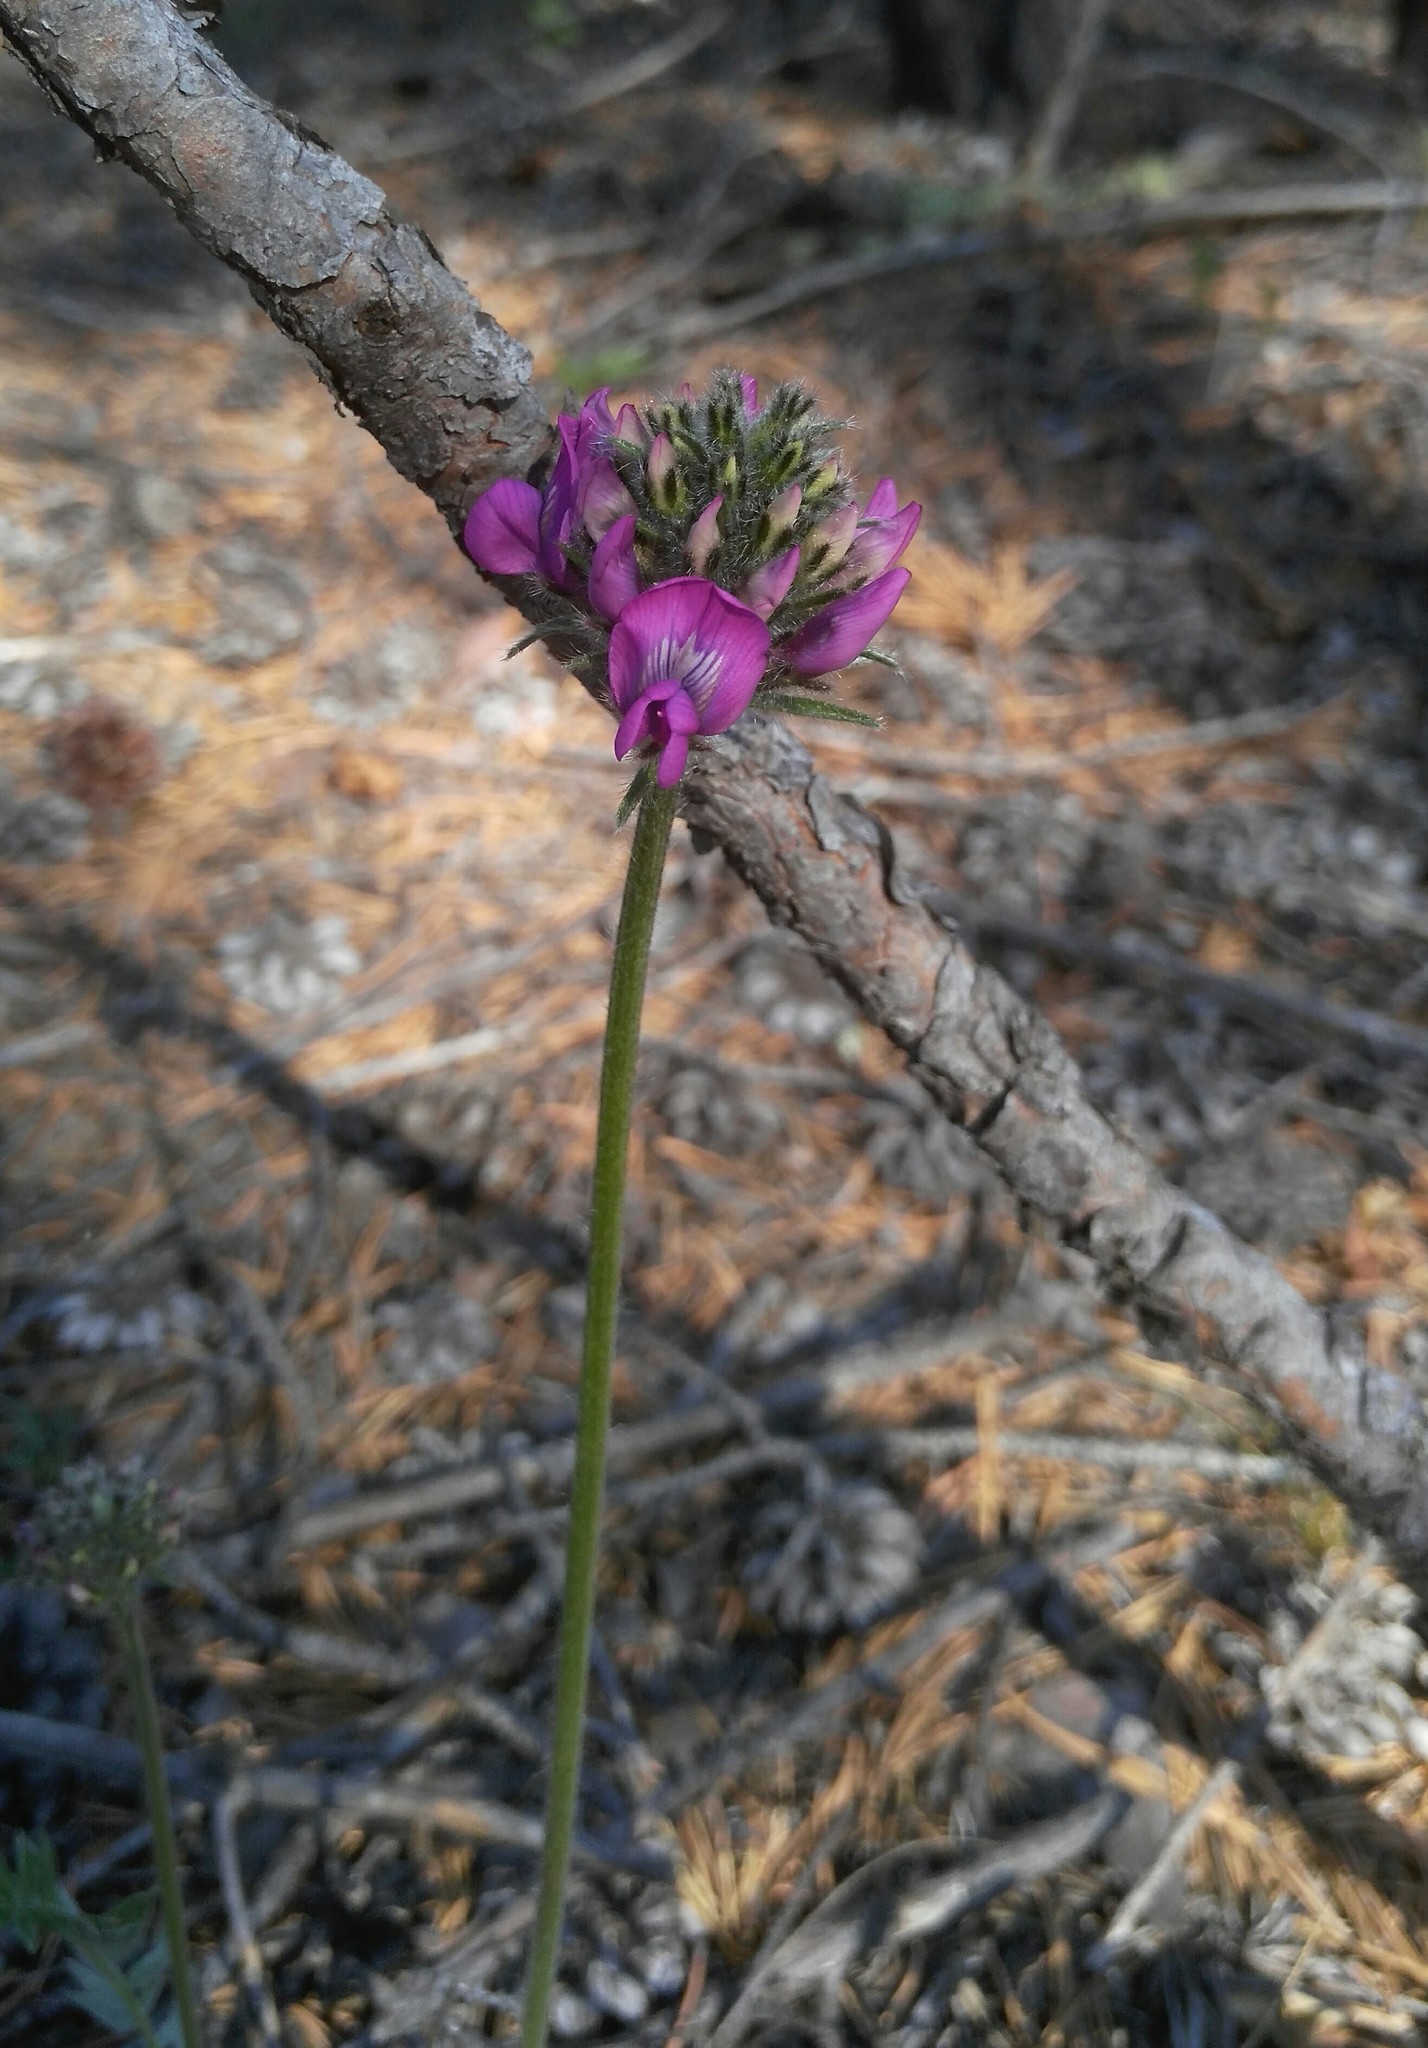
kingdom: Plantae
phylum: Tracheophyta
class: Magnoliopsida
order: Fabales
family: Fabaceae
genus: Oxytropis
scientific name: Oxytropis strobilacea
